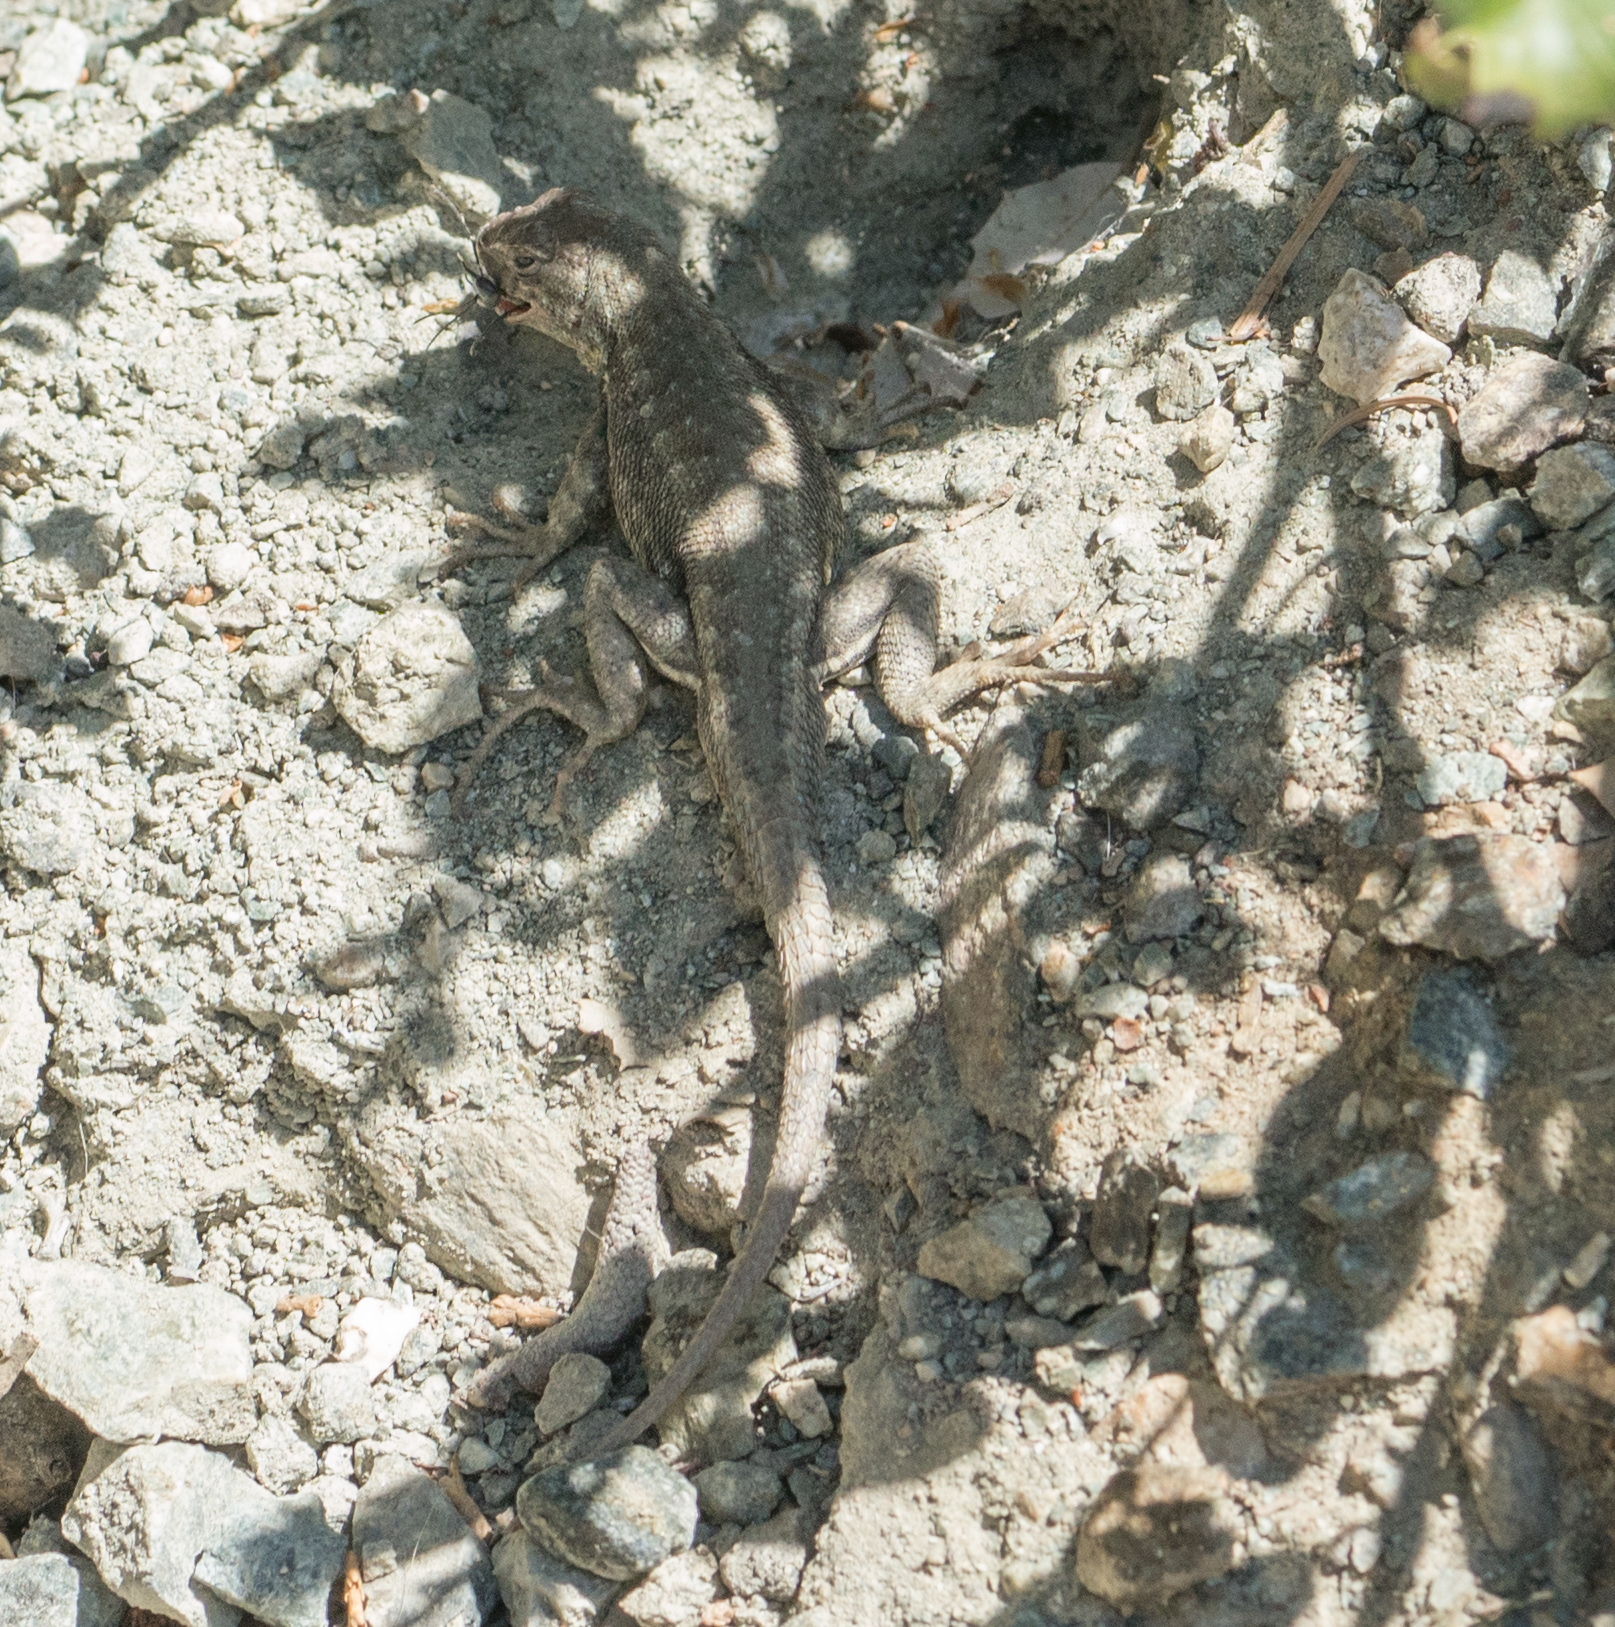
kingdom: Animalia
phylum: Chordata
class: Squamata
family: Phrynosomatidae
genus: Sceloporus
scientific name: Sceloporus graciosus
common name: Sagebrush lizard
